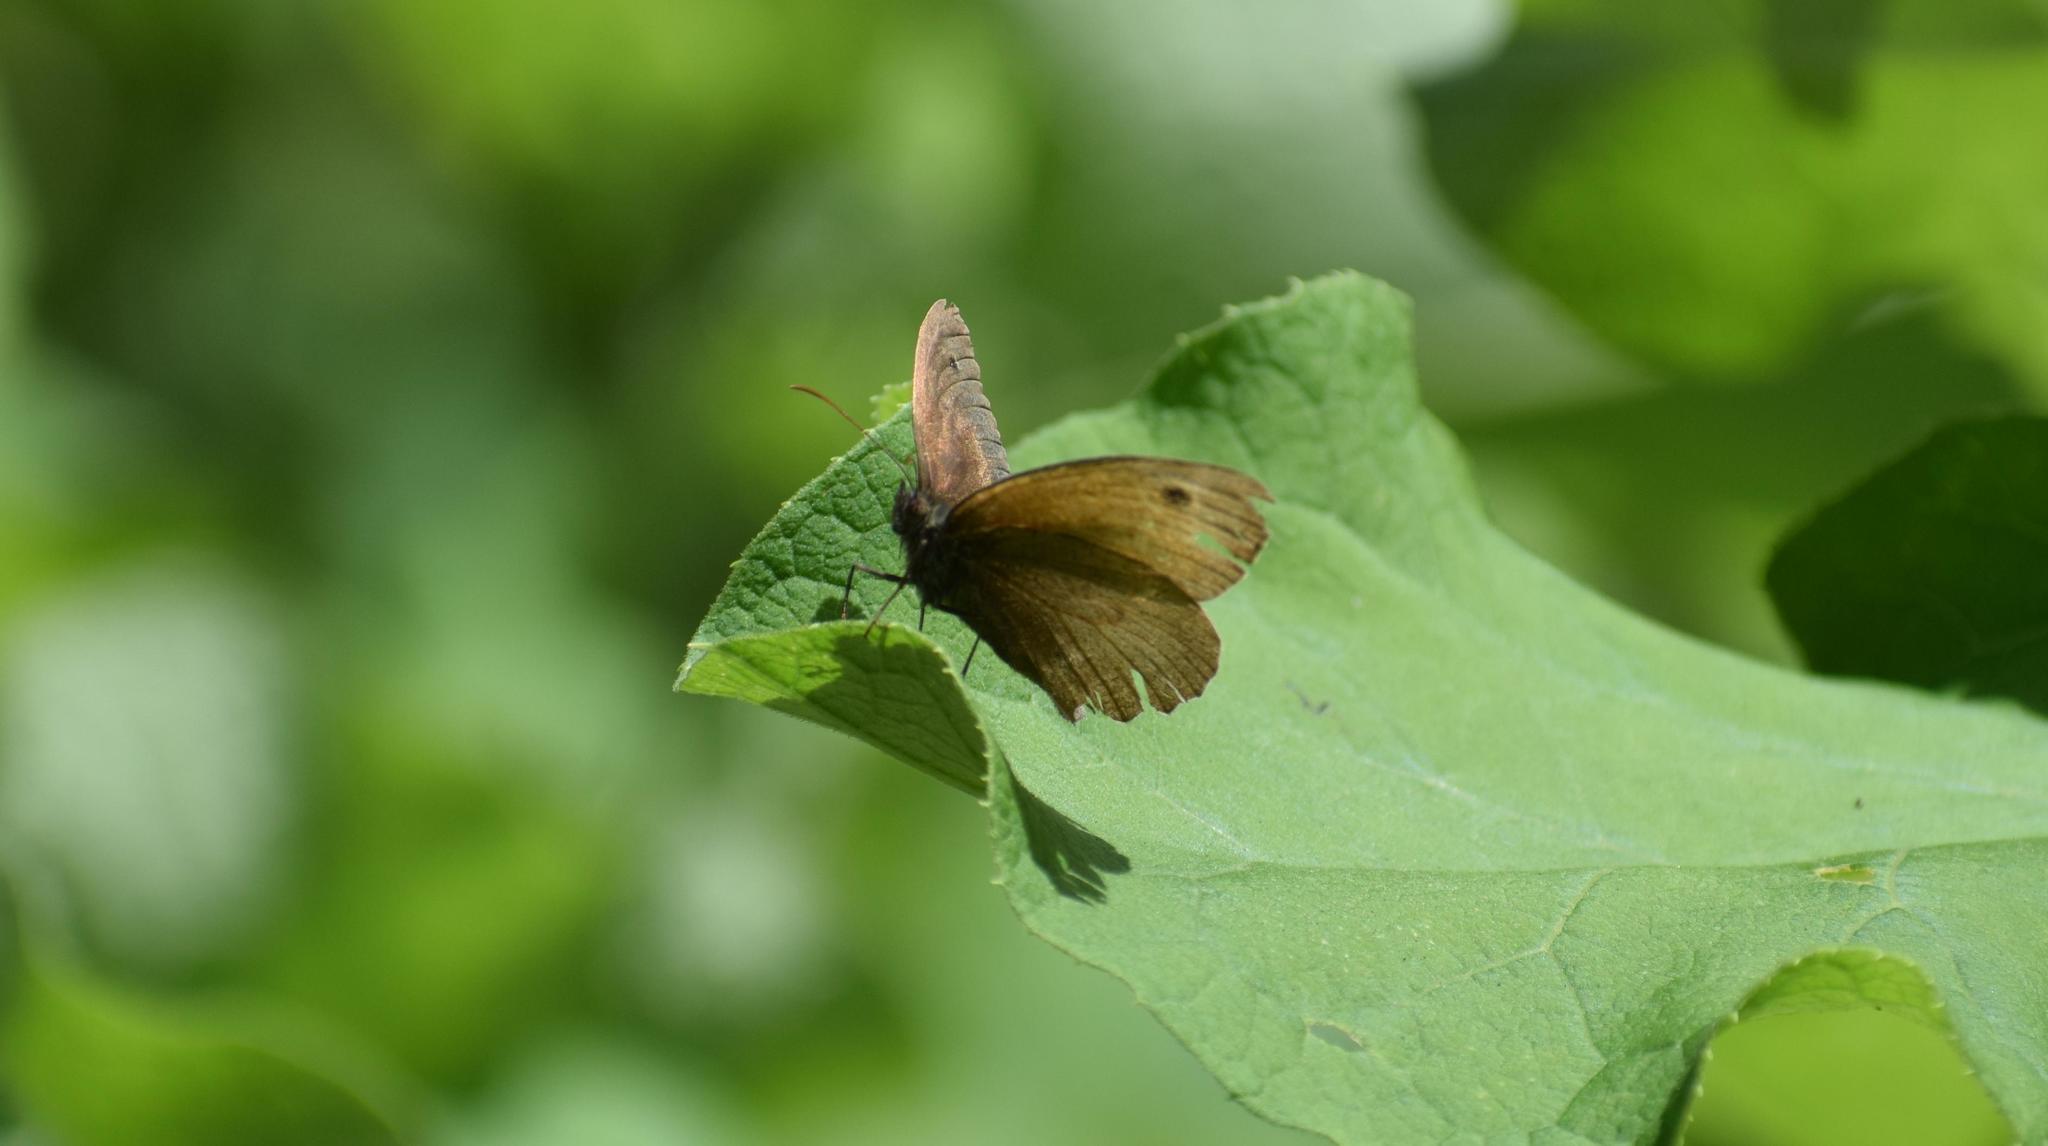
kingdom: Animalia
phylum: Arthropoda
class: Insecta
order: Lepidoptera
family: Nymphalidae
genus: Maniola
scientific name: Maniola jurtina
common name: Meadow brown
